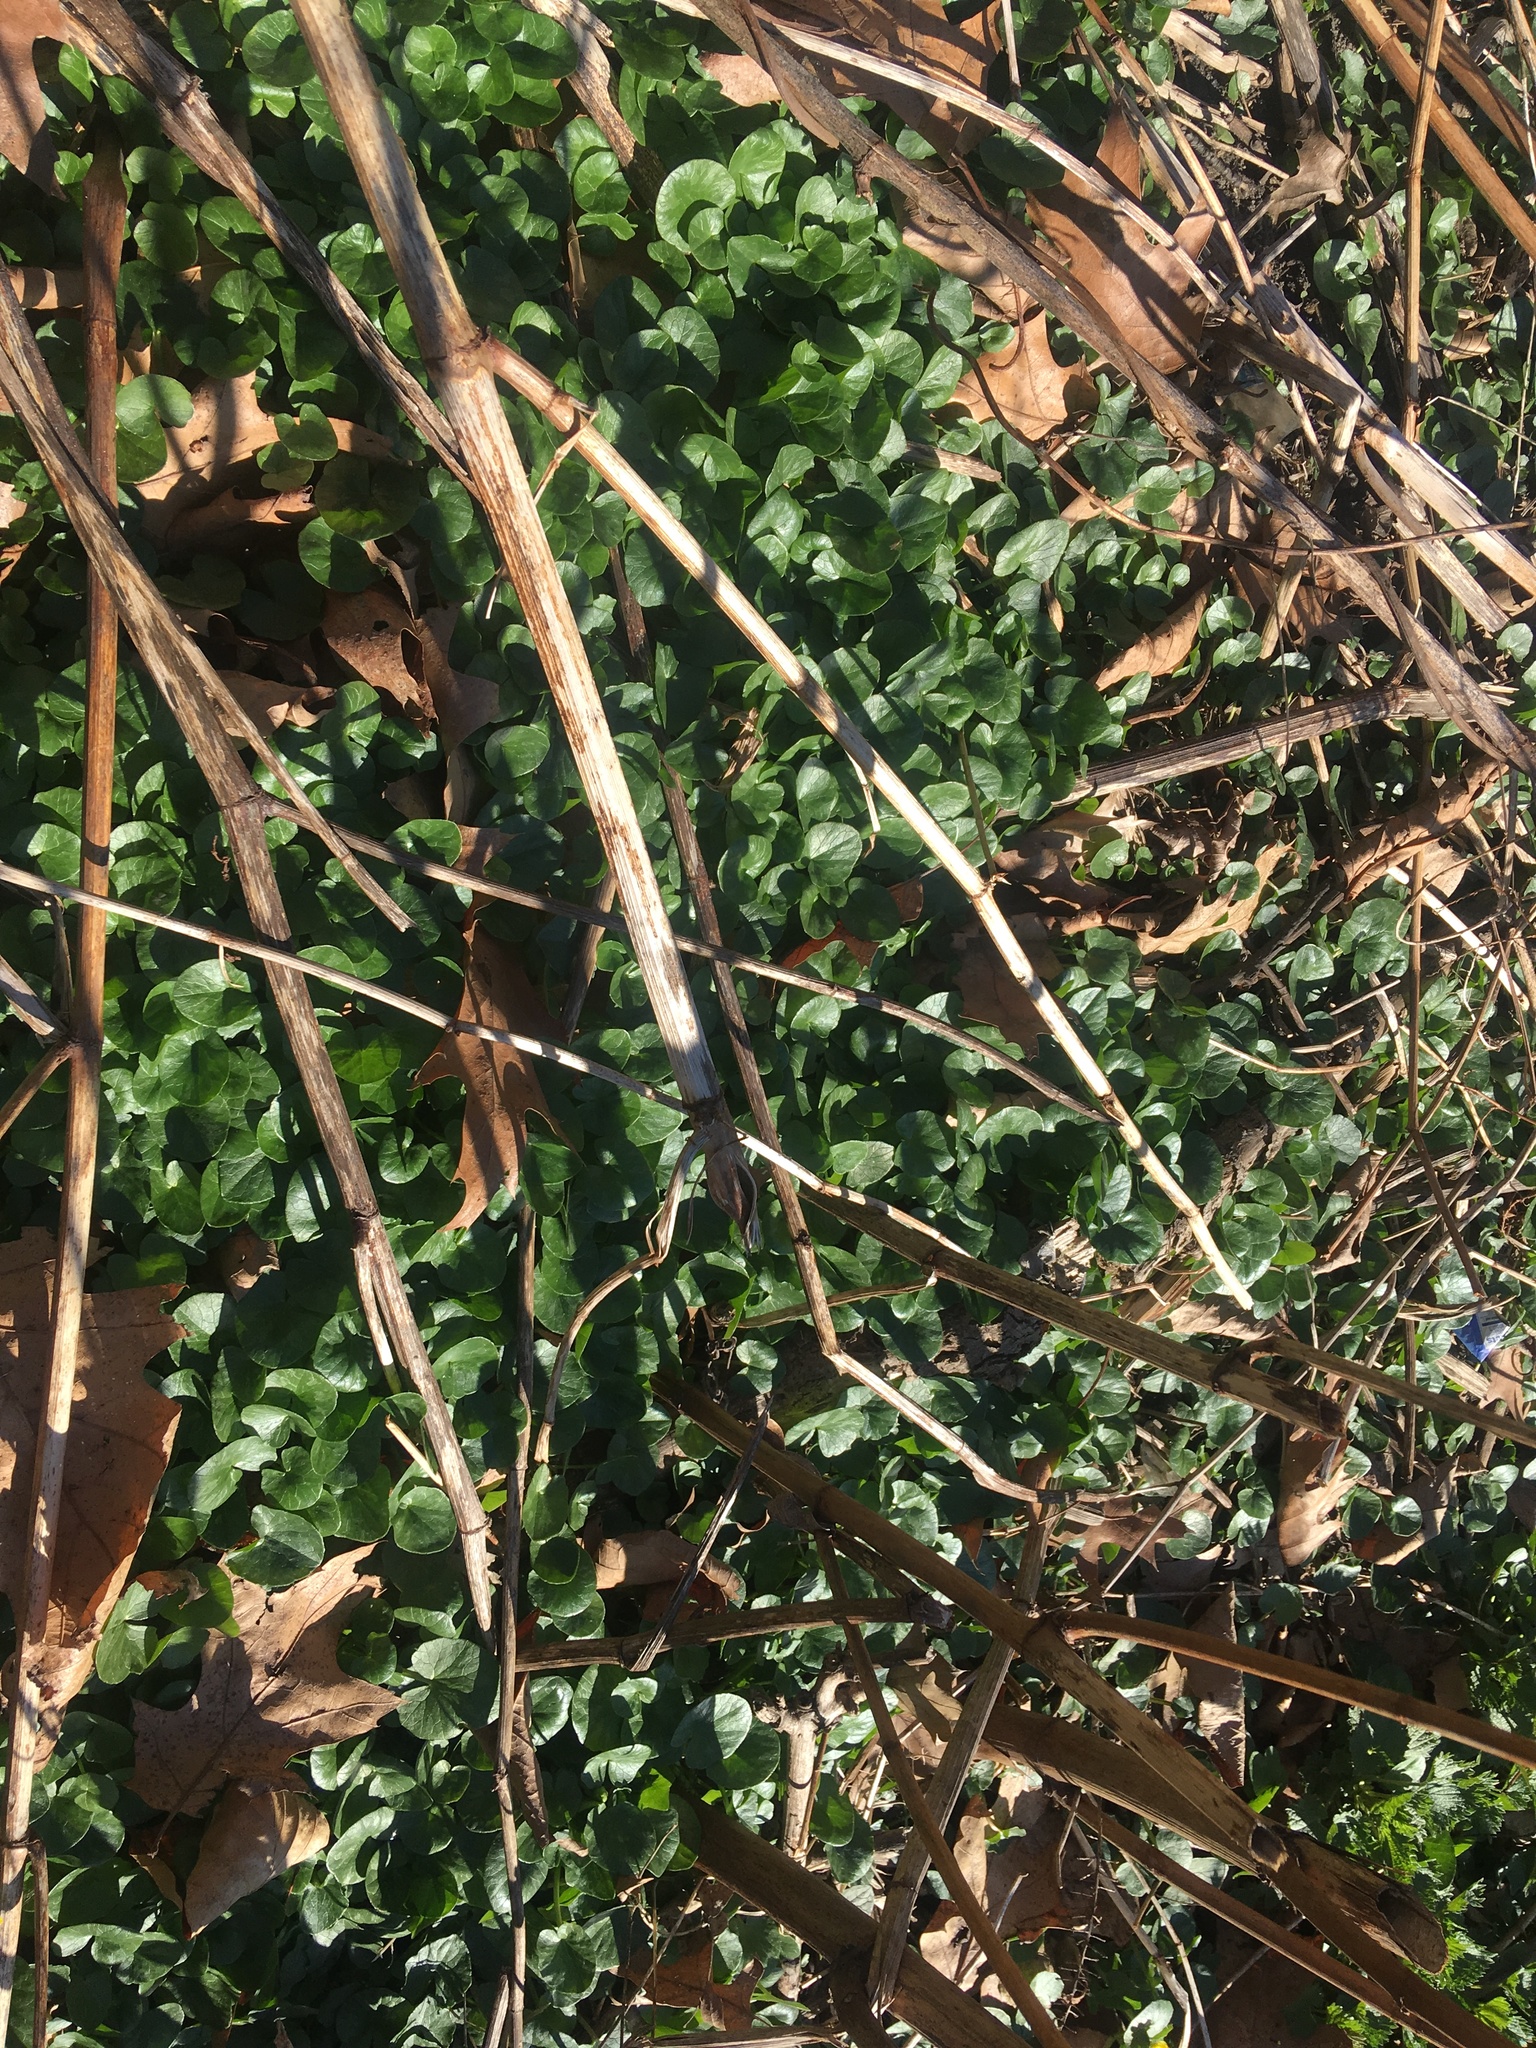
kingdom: Plantae
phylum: Tracheophyta
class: Magnoliopsida
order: Ranunculales
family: Ranunculaceae
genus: Ficaria
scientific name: Ficaria verna
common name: Lesser celandine
